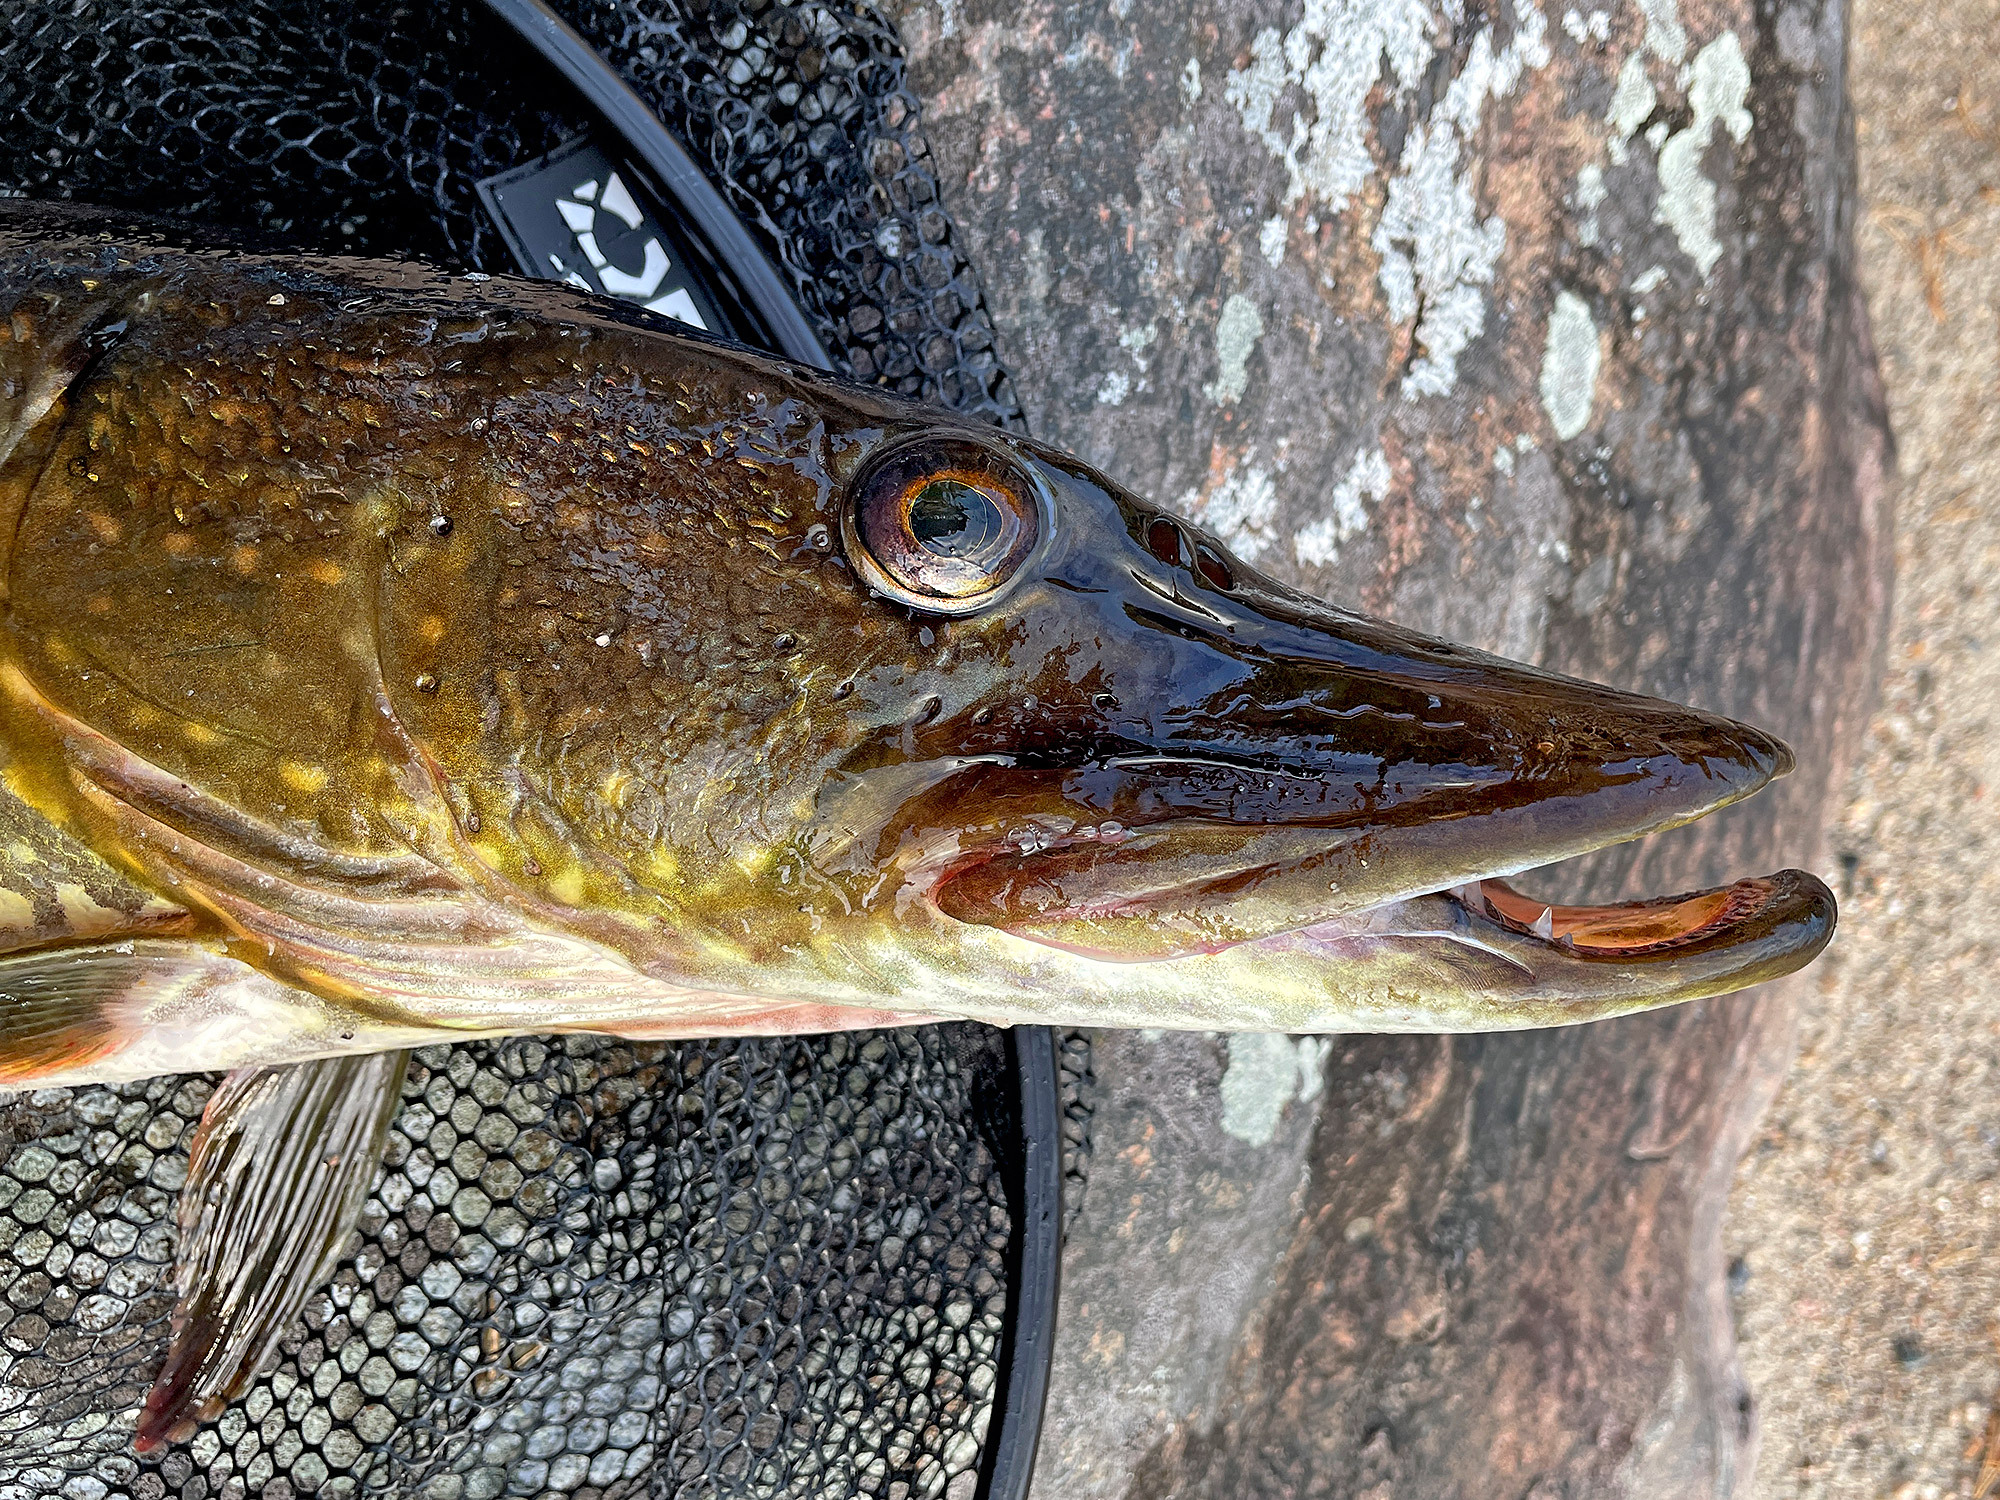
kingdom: Animalia
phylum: Chordata
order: Esociformes
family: Esocidae
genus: Esox
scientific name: Esox lucius
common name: Northern pike
